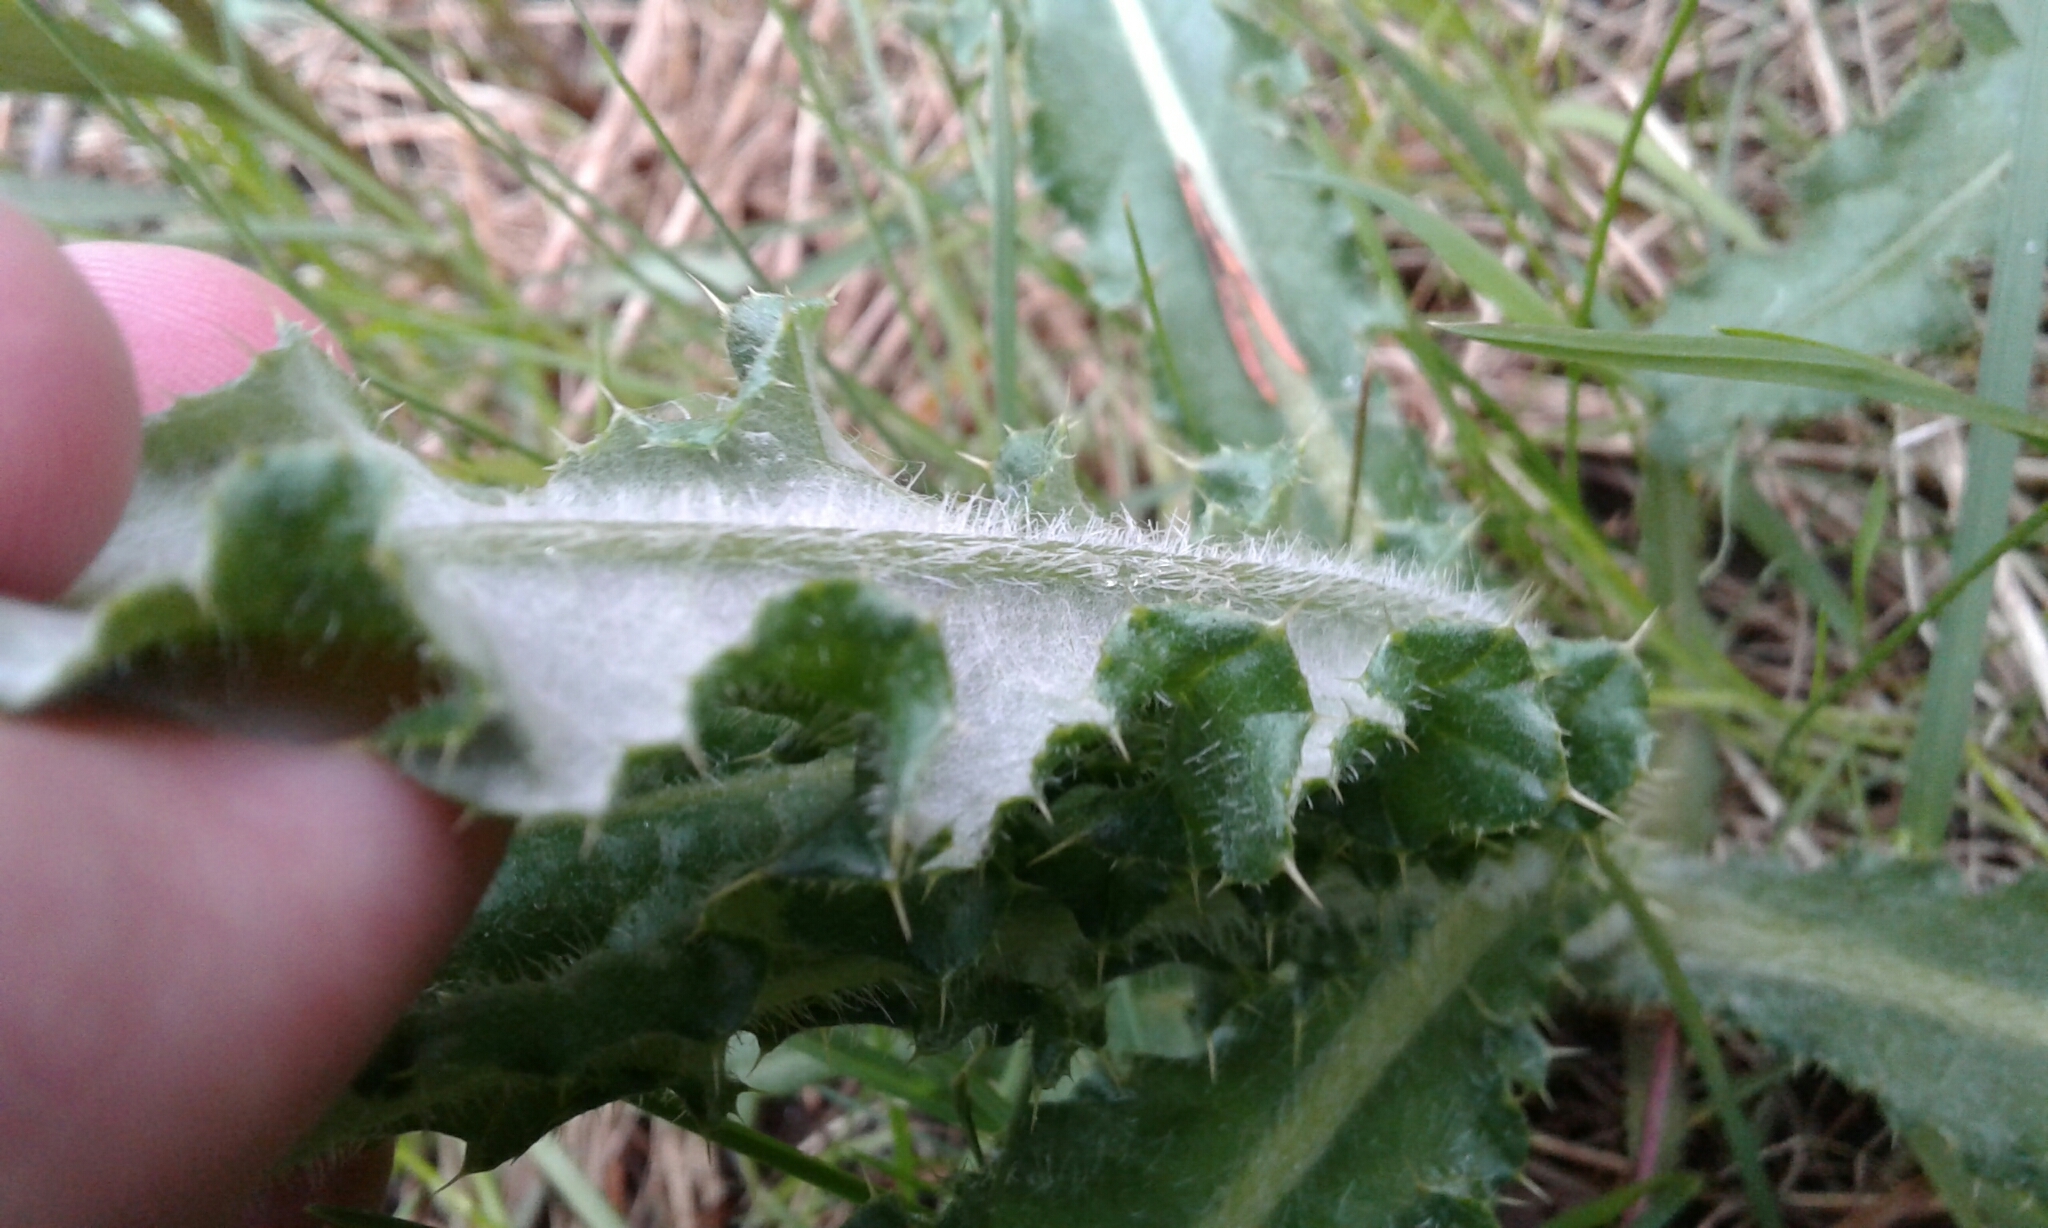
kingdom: Plantae
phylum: Tracheophyta
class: Magnoliopsida
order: Asterales
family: Asteraceae
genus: Cirsium
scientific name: Cirsium arvense
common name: Creeping thistle
